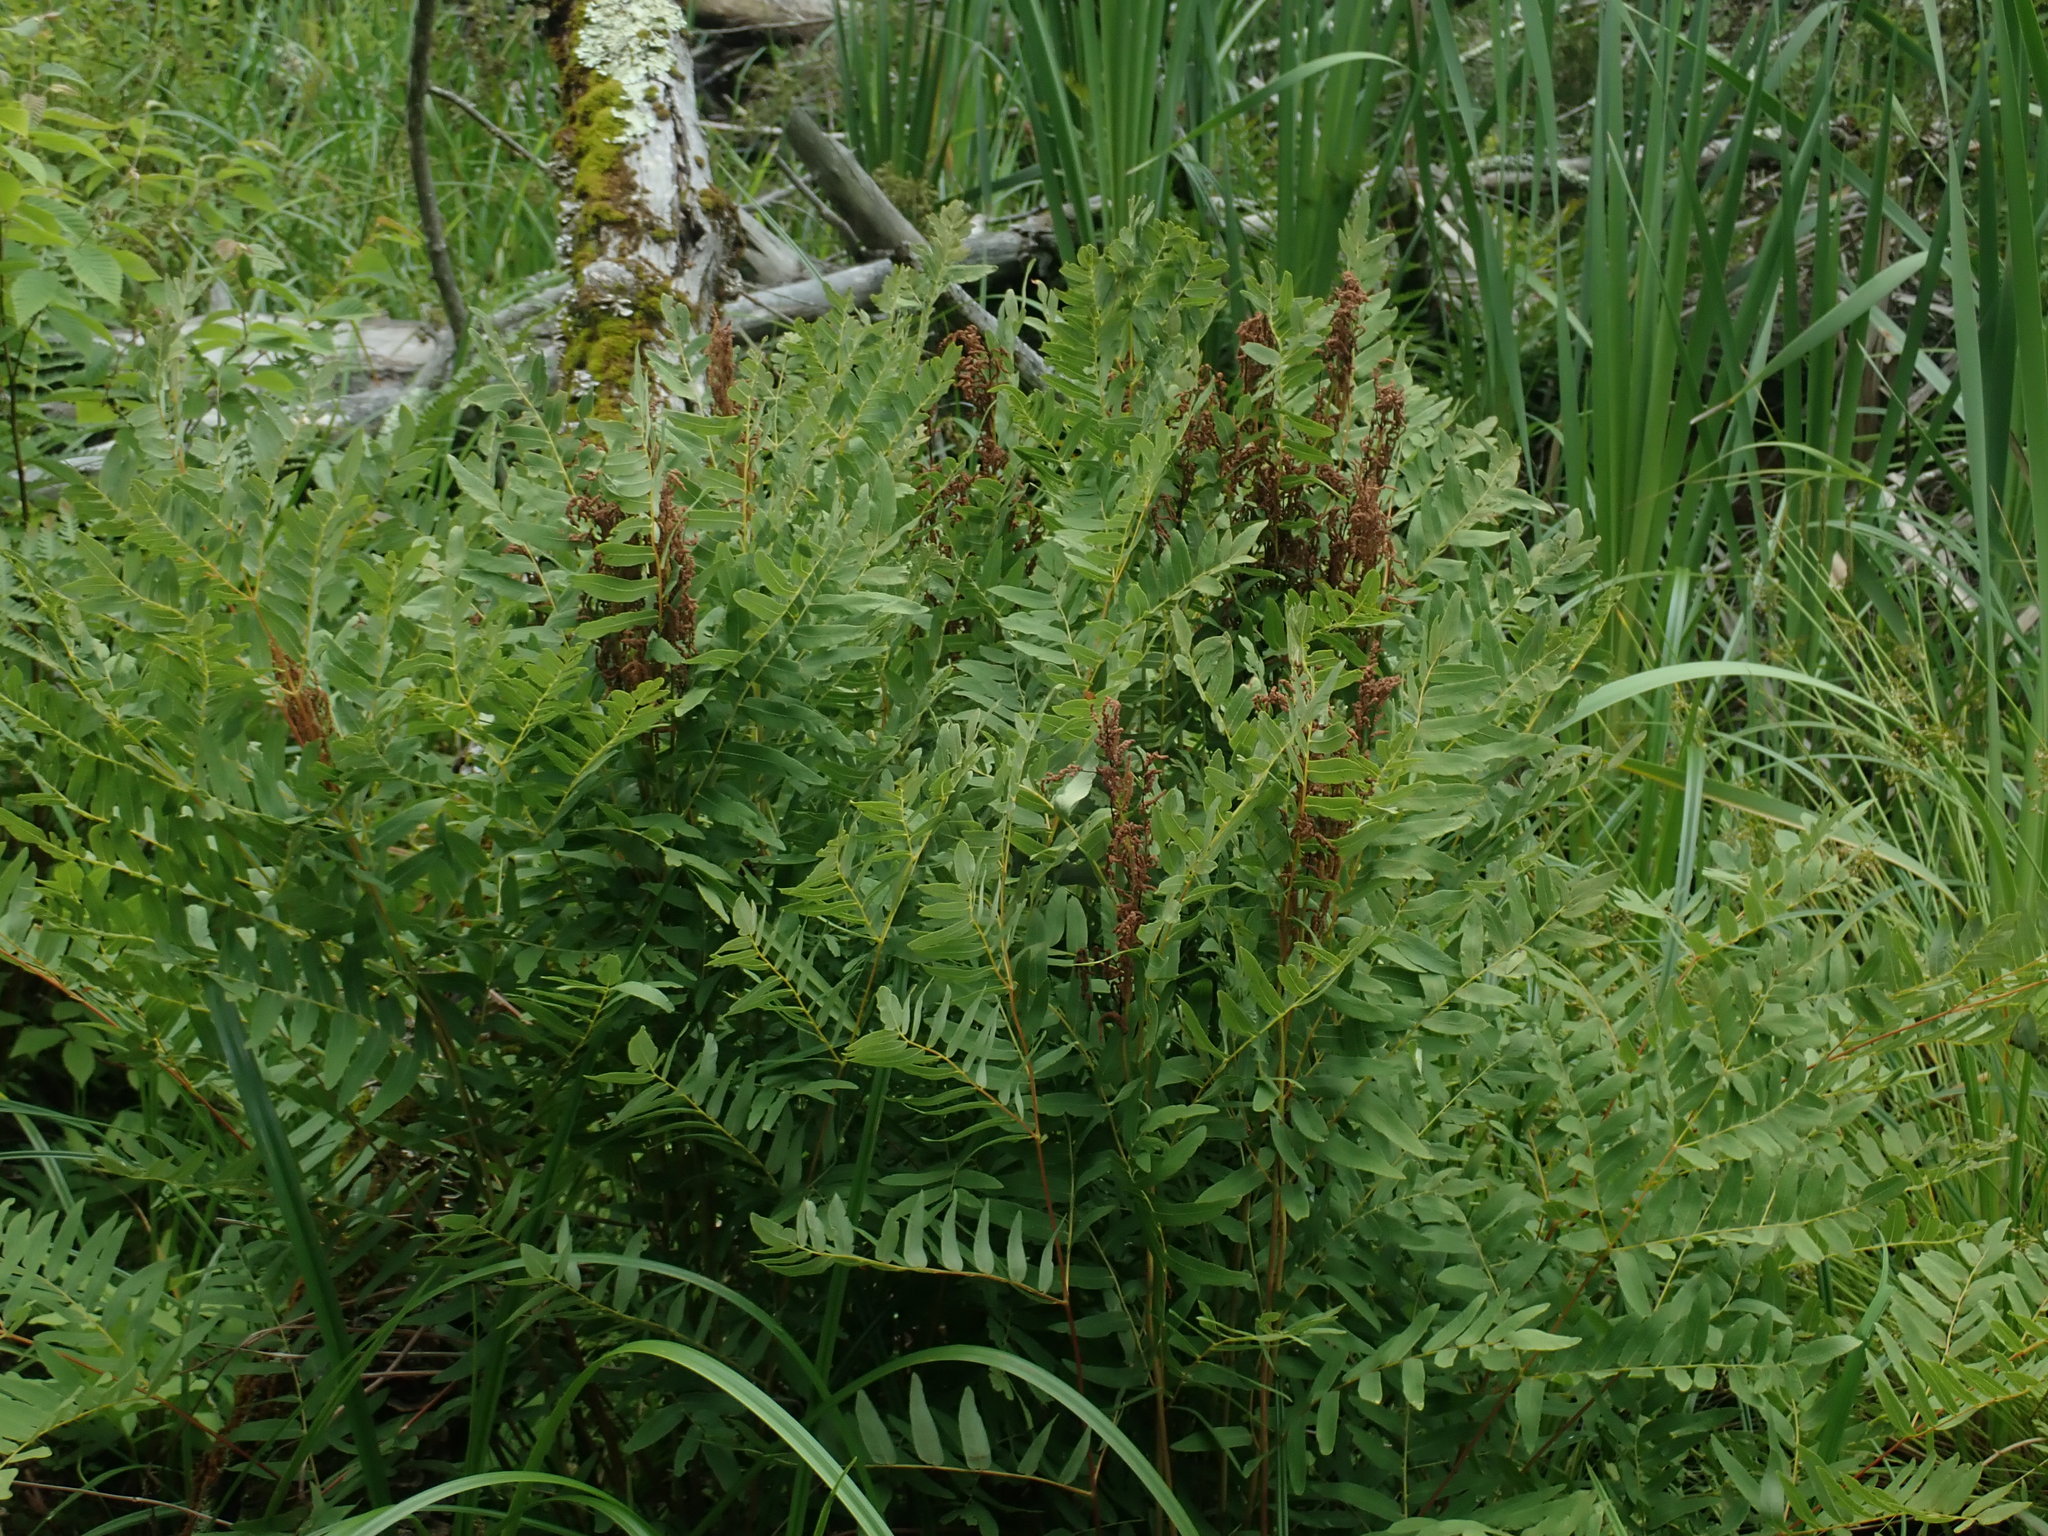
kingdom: Plantae
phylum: Tracheophyta
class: Polypodiopsida
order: Osmundales
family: Osmundaceae
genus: Osmunda
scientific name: Osmunda spectabilis
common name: American royal fern
